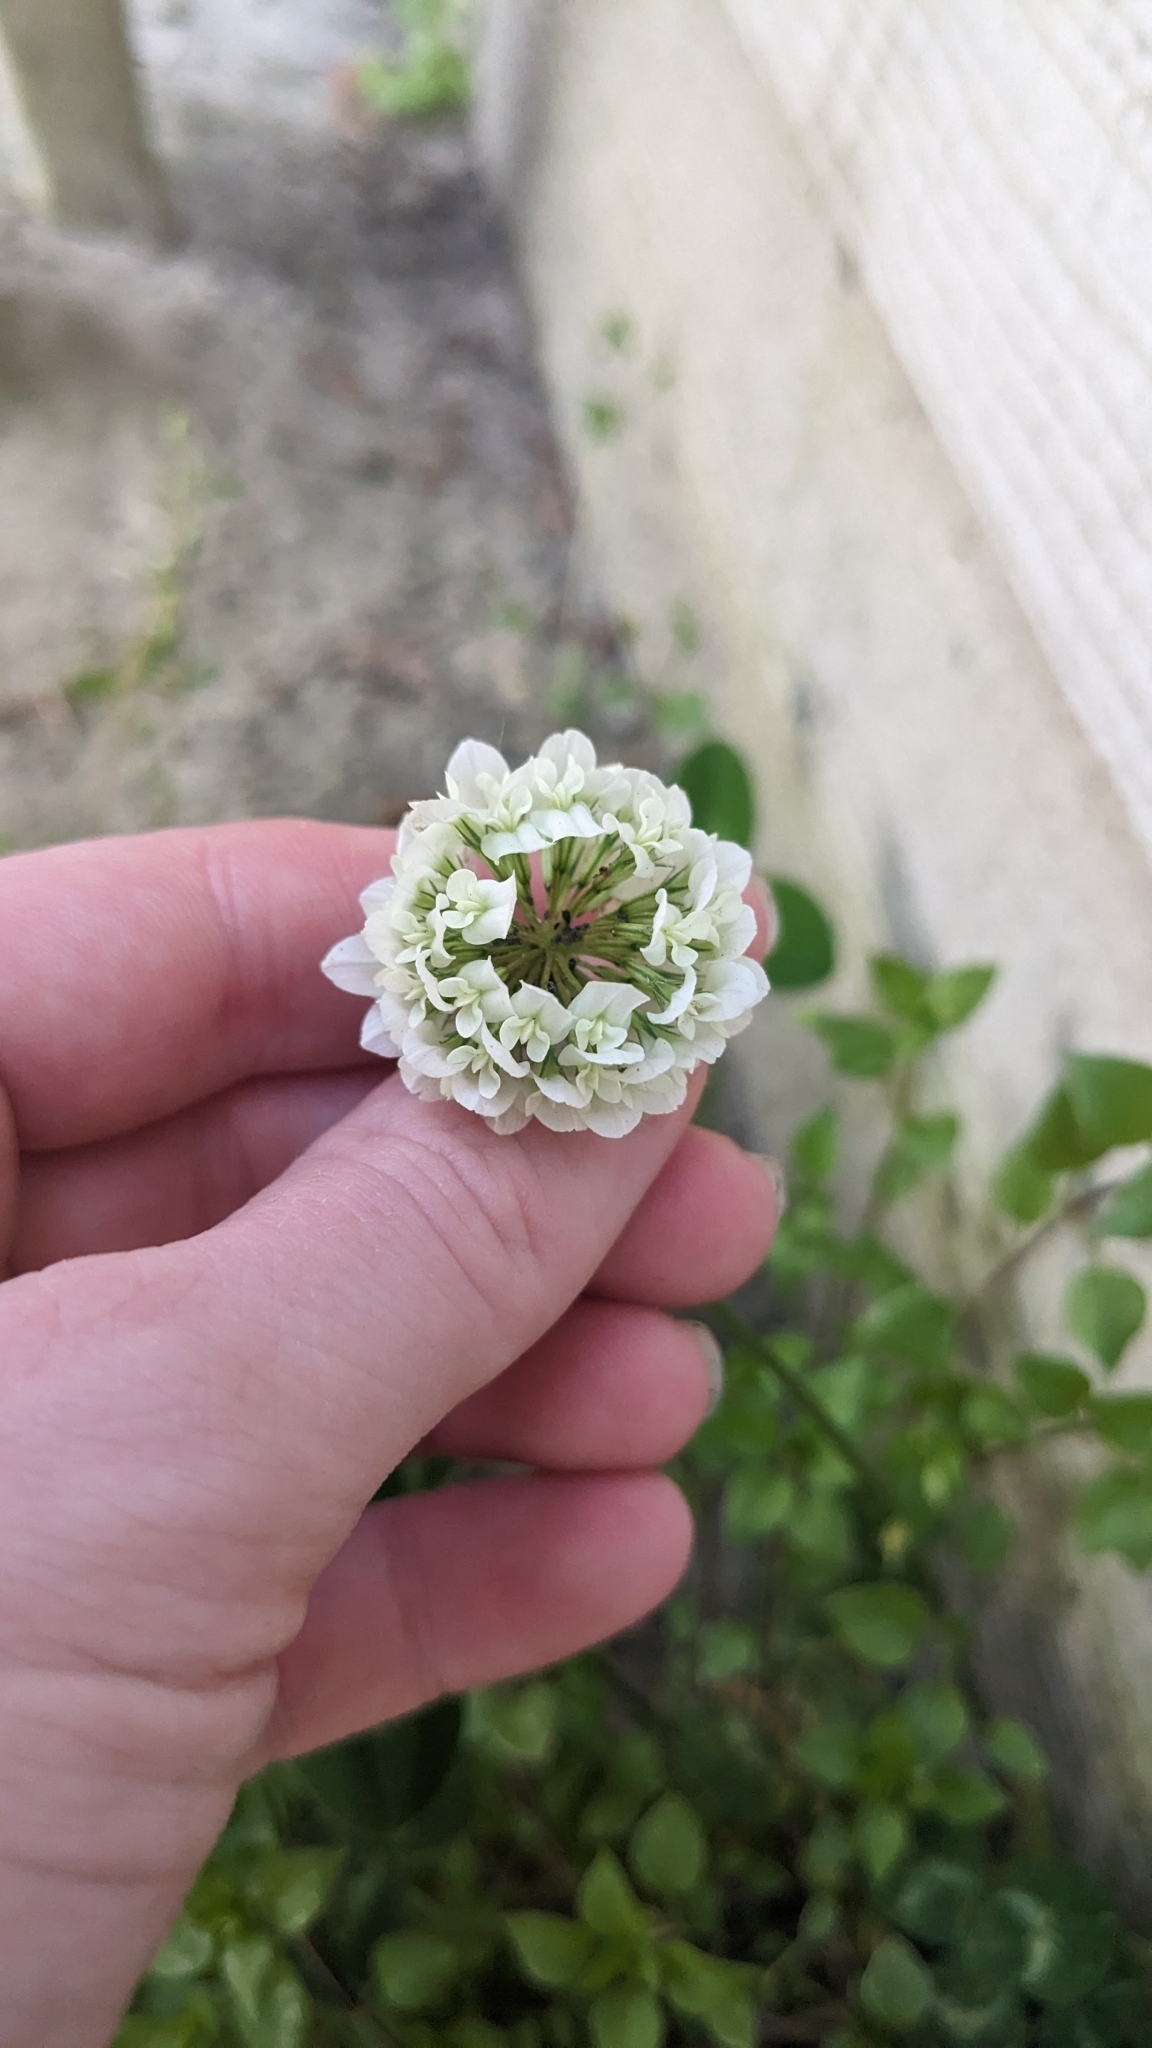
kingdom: Plantae
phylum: Tracheophyta
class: Magnoliopsida
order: Fabales
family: Fabaceae
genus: Trifolium
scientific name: Trifolium repens
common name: White clover
